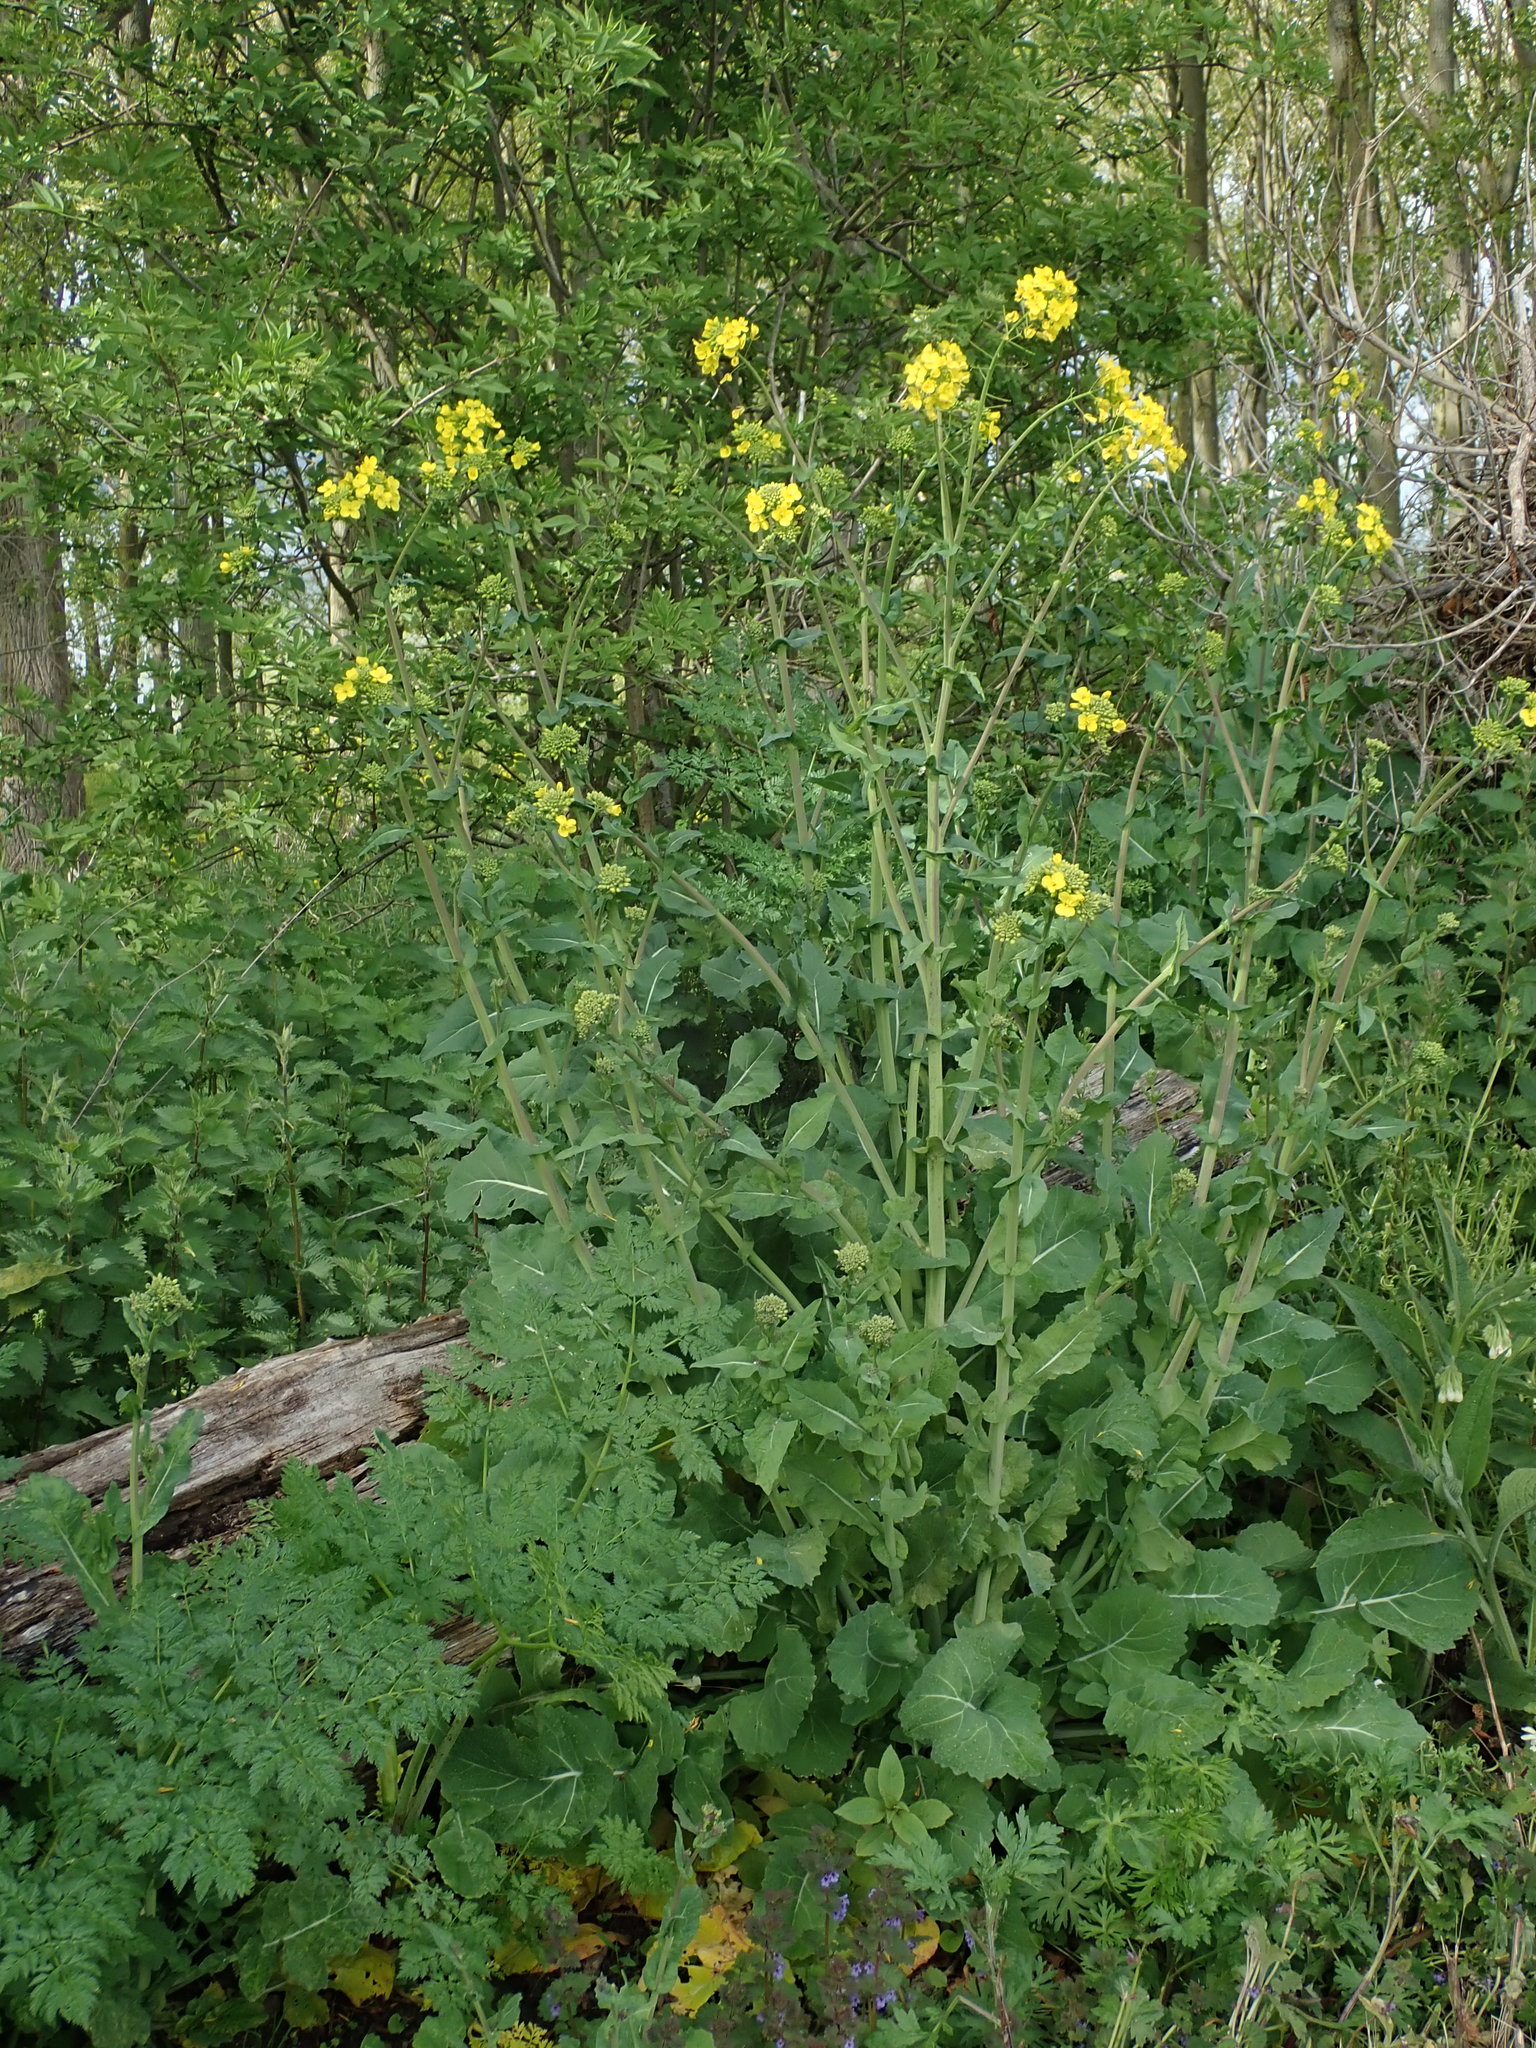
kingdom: Plantae
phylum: Tracheophyta
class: Magnoliopsida
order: Brassicales
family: Brassicaceae
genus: Brassica
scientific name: Brassica rapa
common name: Field mustard
